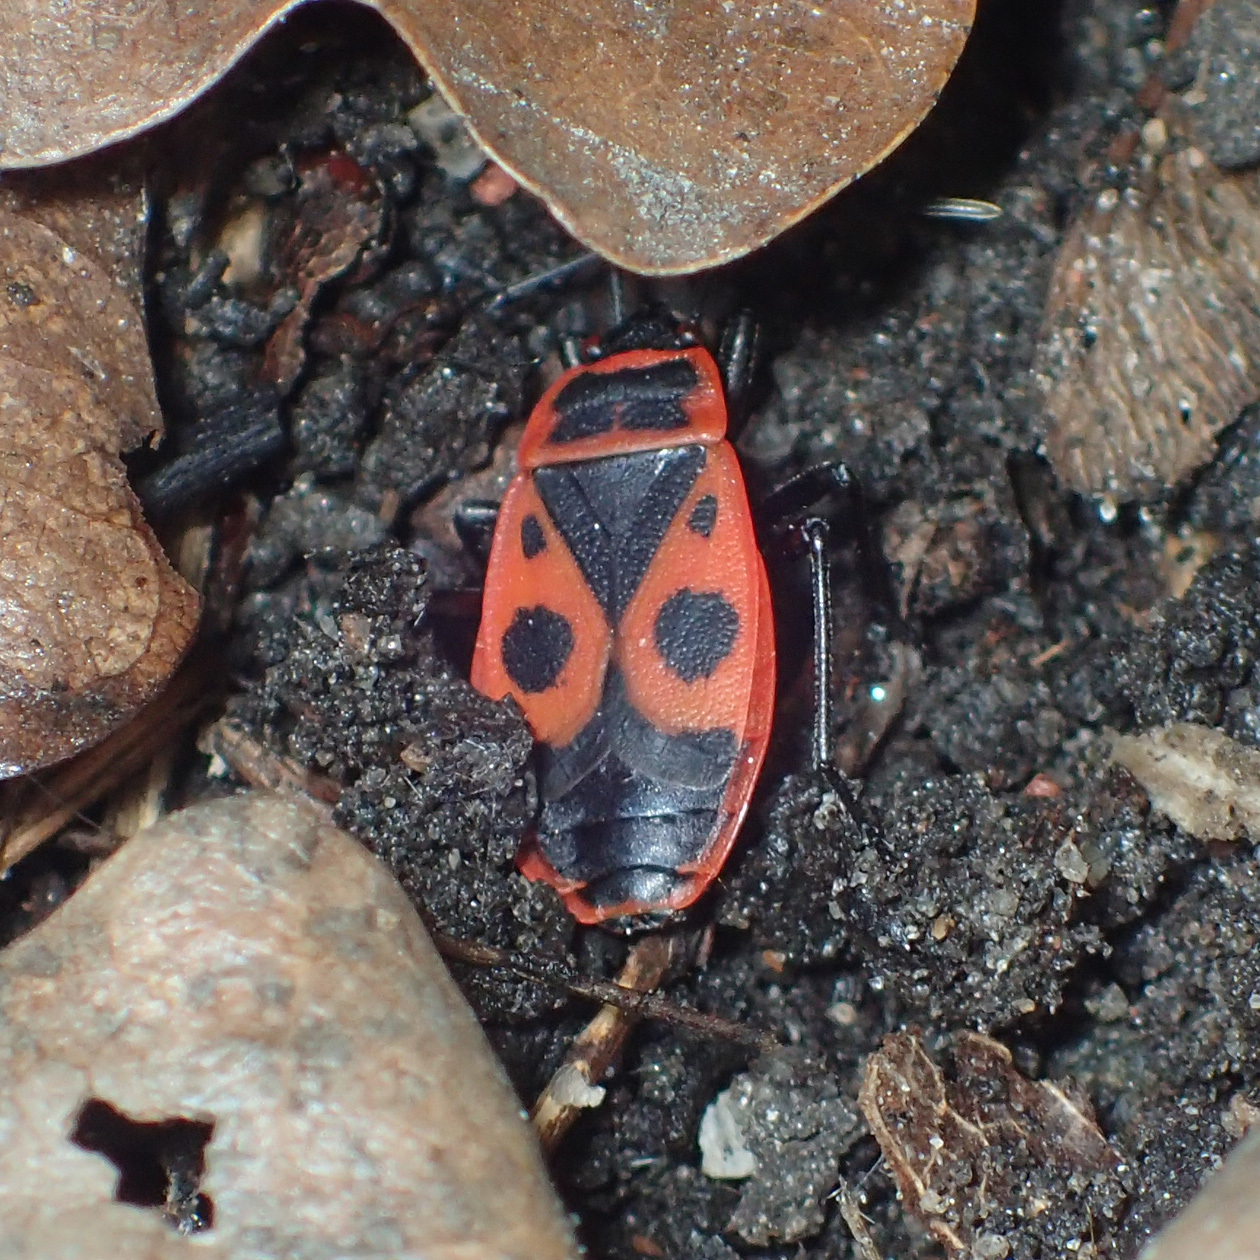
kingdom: Animalia
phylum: Arthropoda
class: Insecta
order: Hemiptera
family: Pyrrhocoridae
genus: Pyrrhocoris
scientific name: Pyrrhocoris apterus
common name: Firebug
